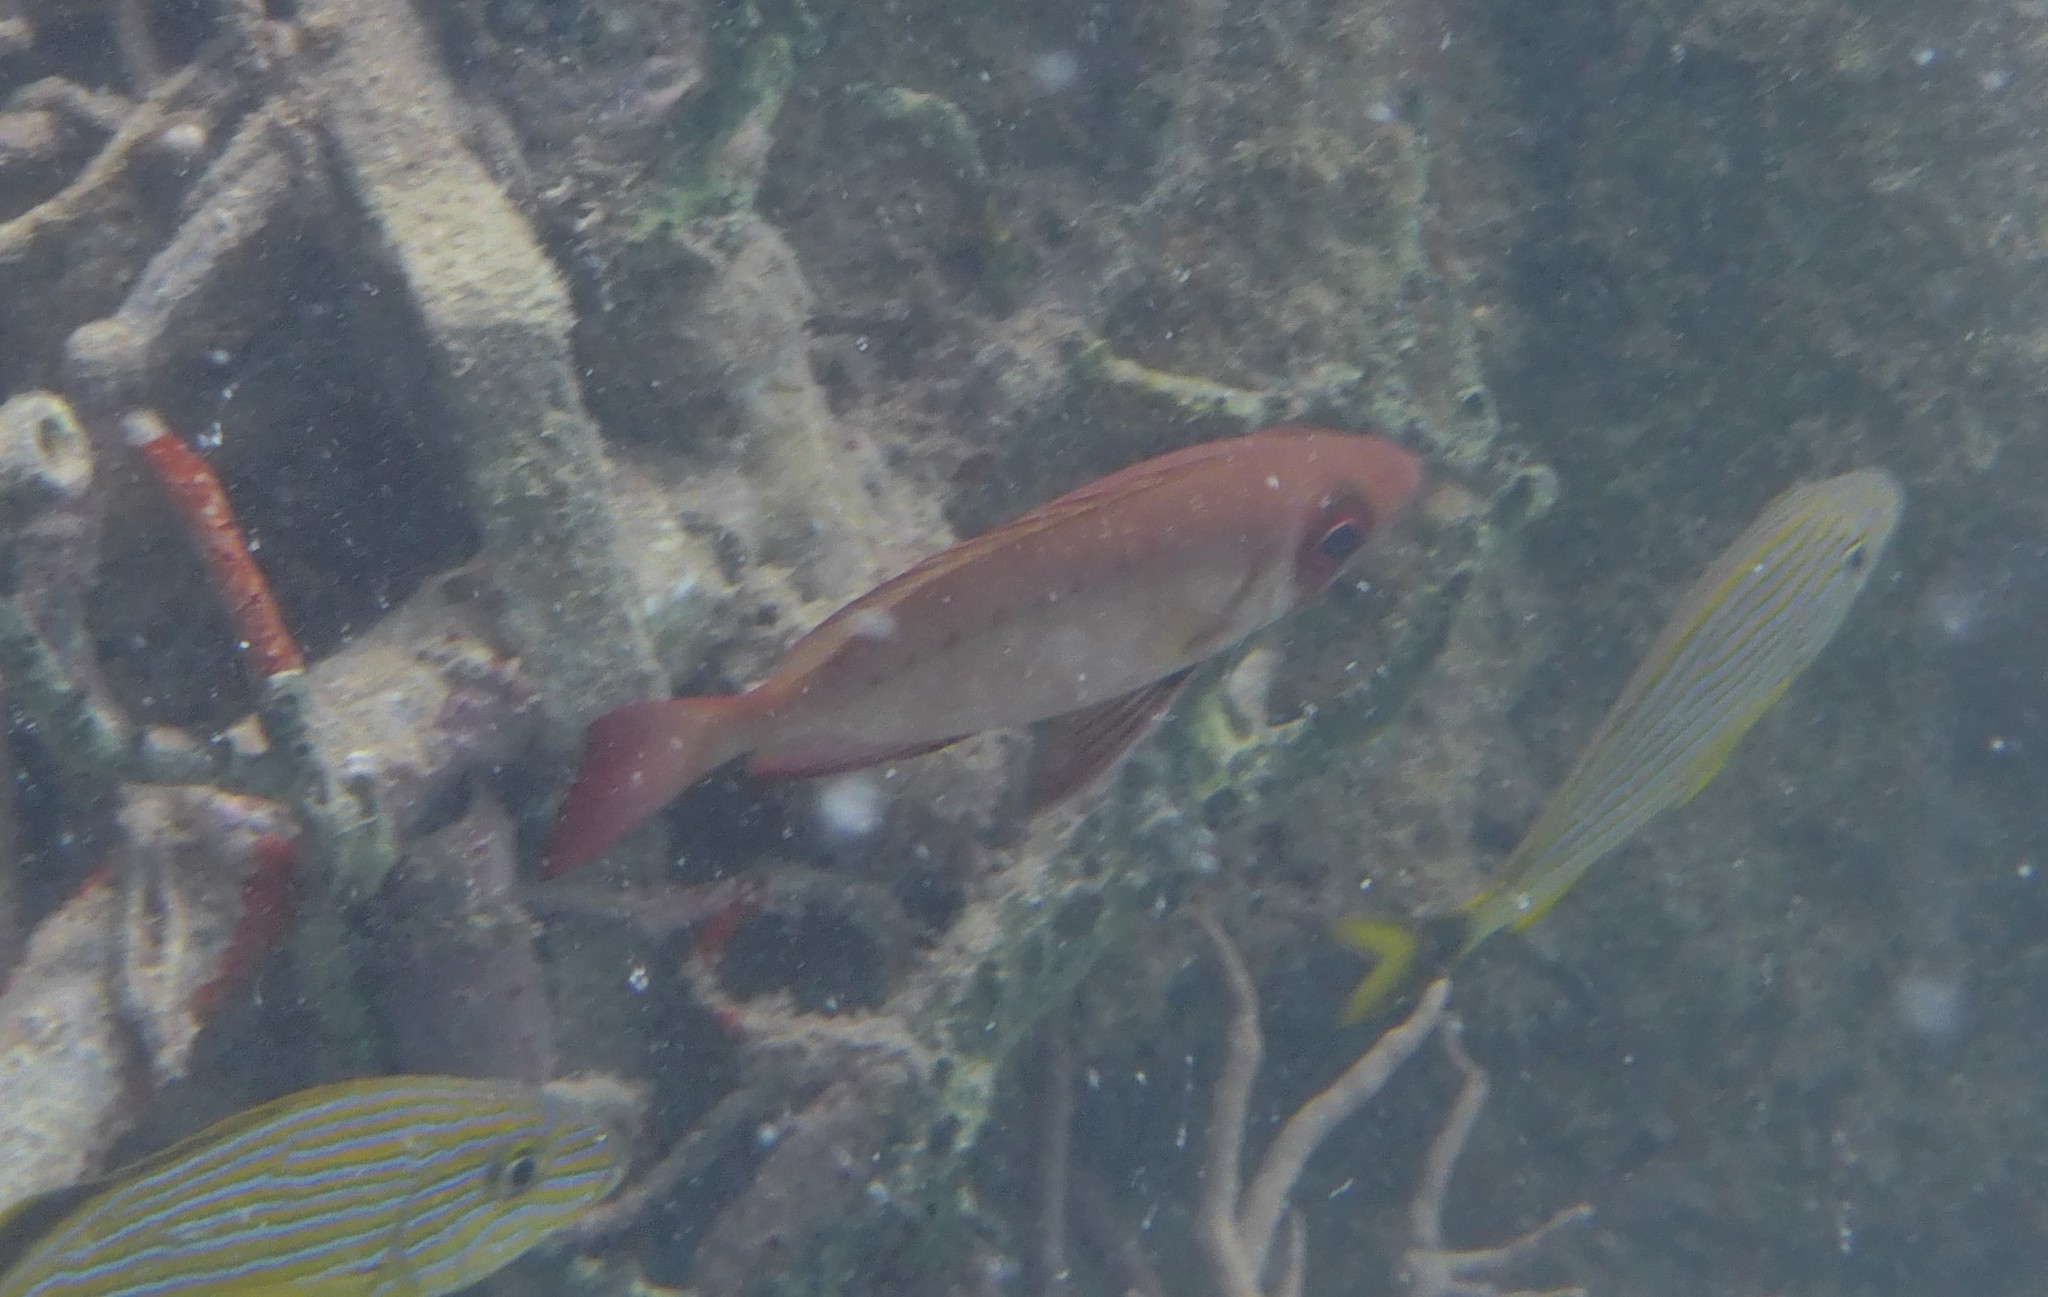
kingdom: Animalia
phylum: Chordata
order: Perciformes
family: Priacanthidae
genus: Priacanthus
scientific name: Priacanthus arenatus
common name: Atlantic bigeye
